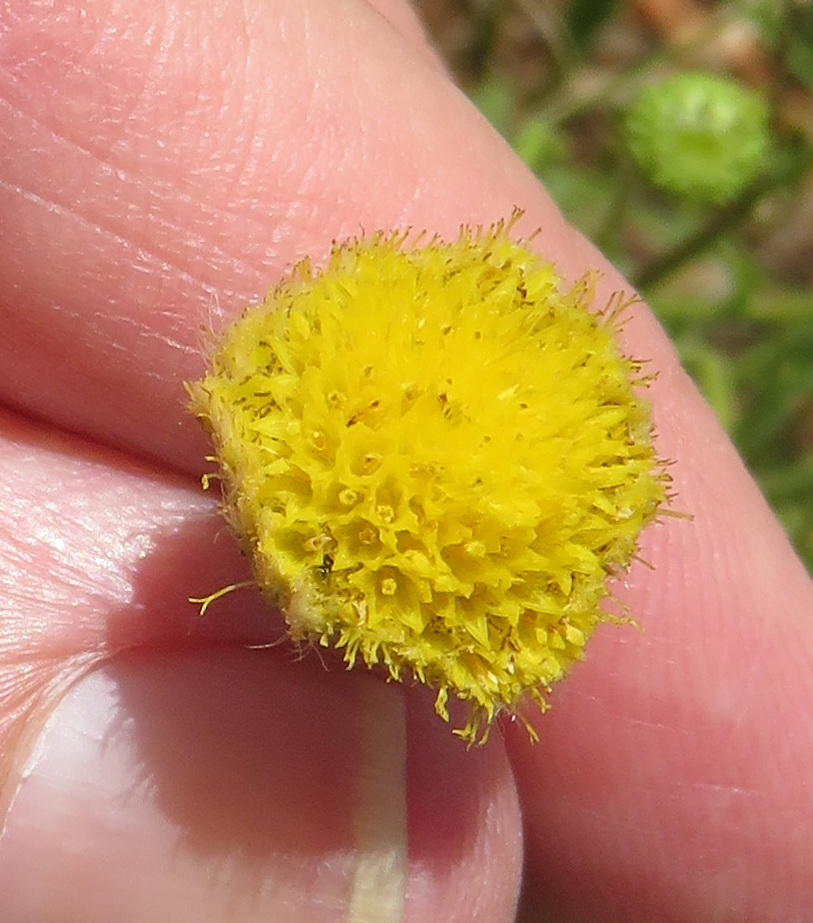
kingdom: Plantae
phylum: Tracheophyta
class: Magnoliopsida
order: Asterales
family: Asteraceae
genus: Nidorella
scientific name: Nidorella podocephala
